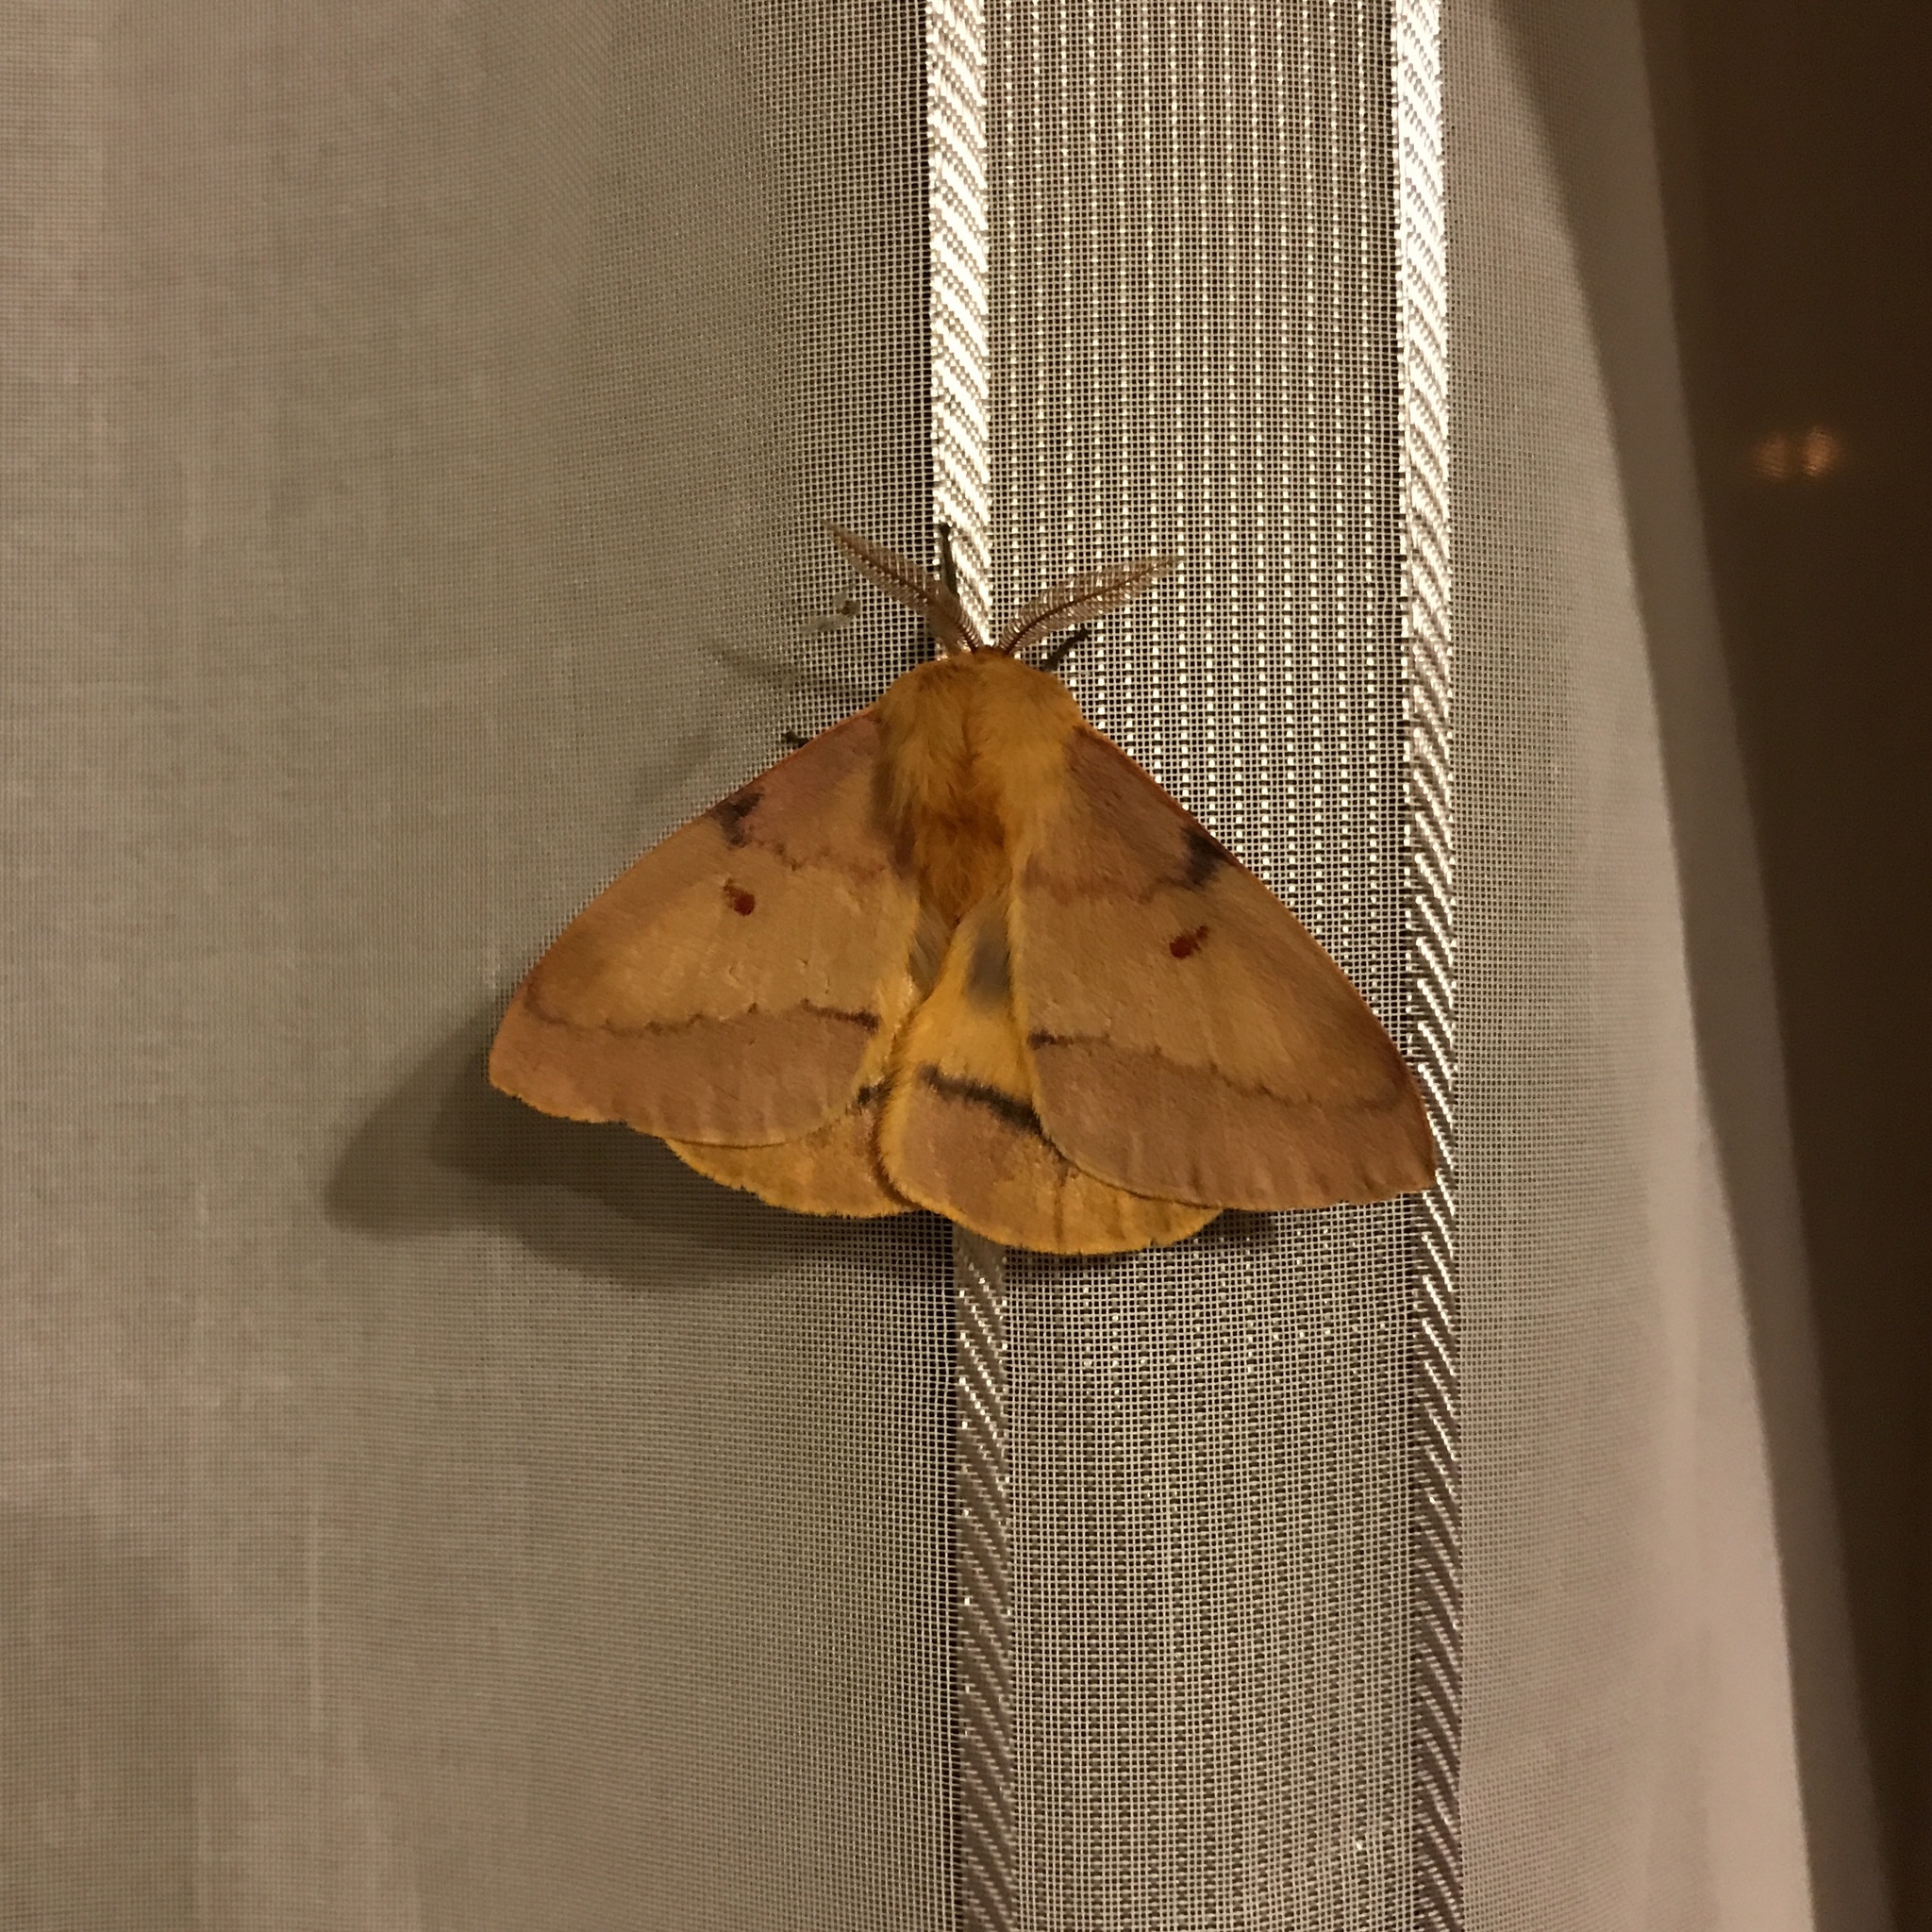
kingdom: Animalia
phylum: Arthropoda
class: Insecta
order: Lepidoptera
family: Saturniidae
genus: Adetomeris
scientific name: Adetomeris erythrops
